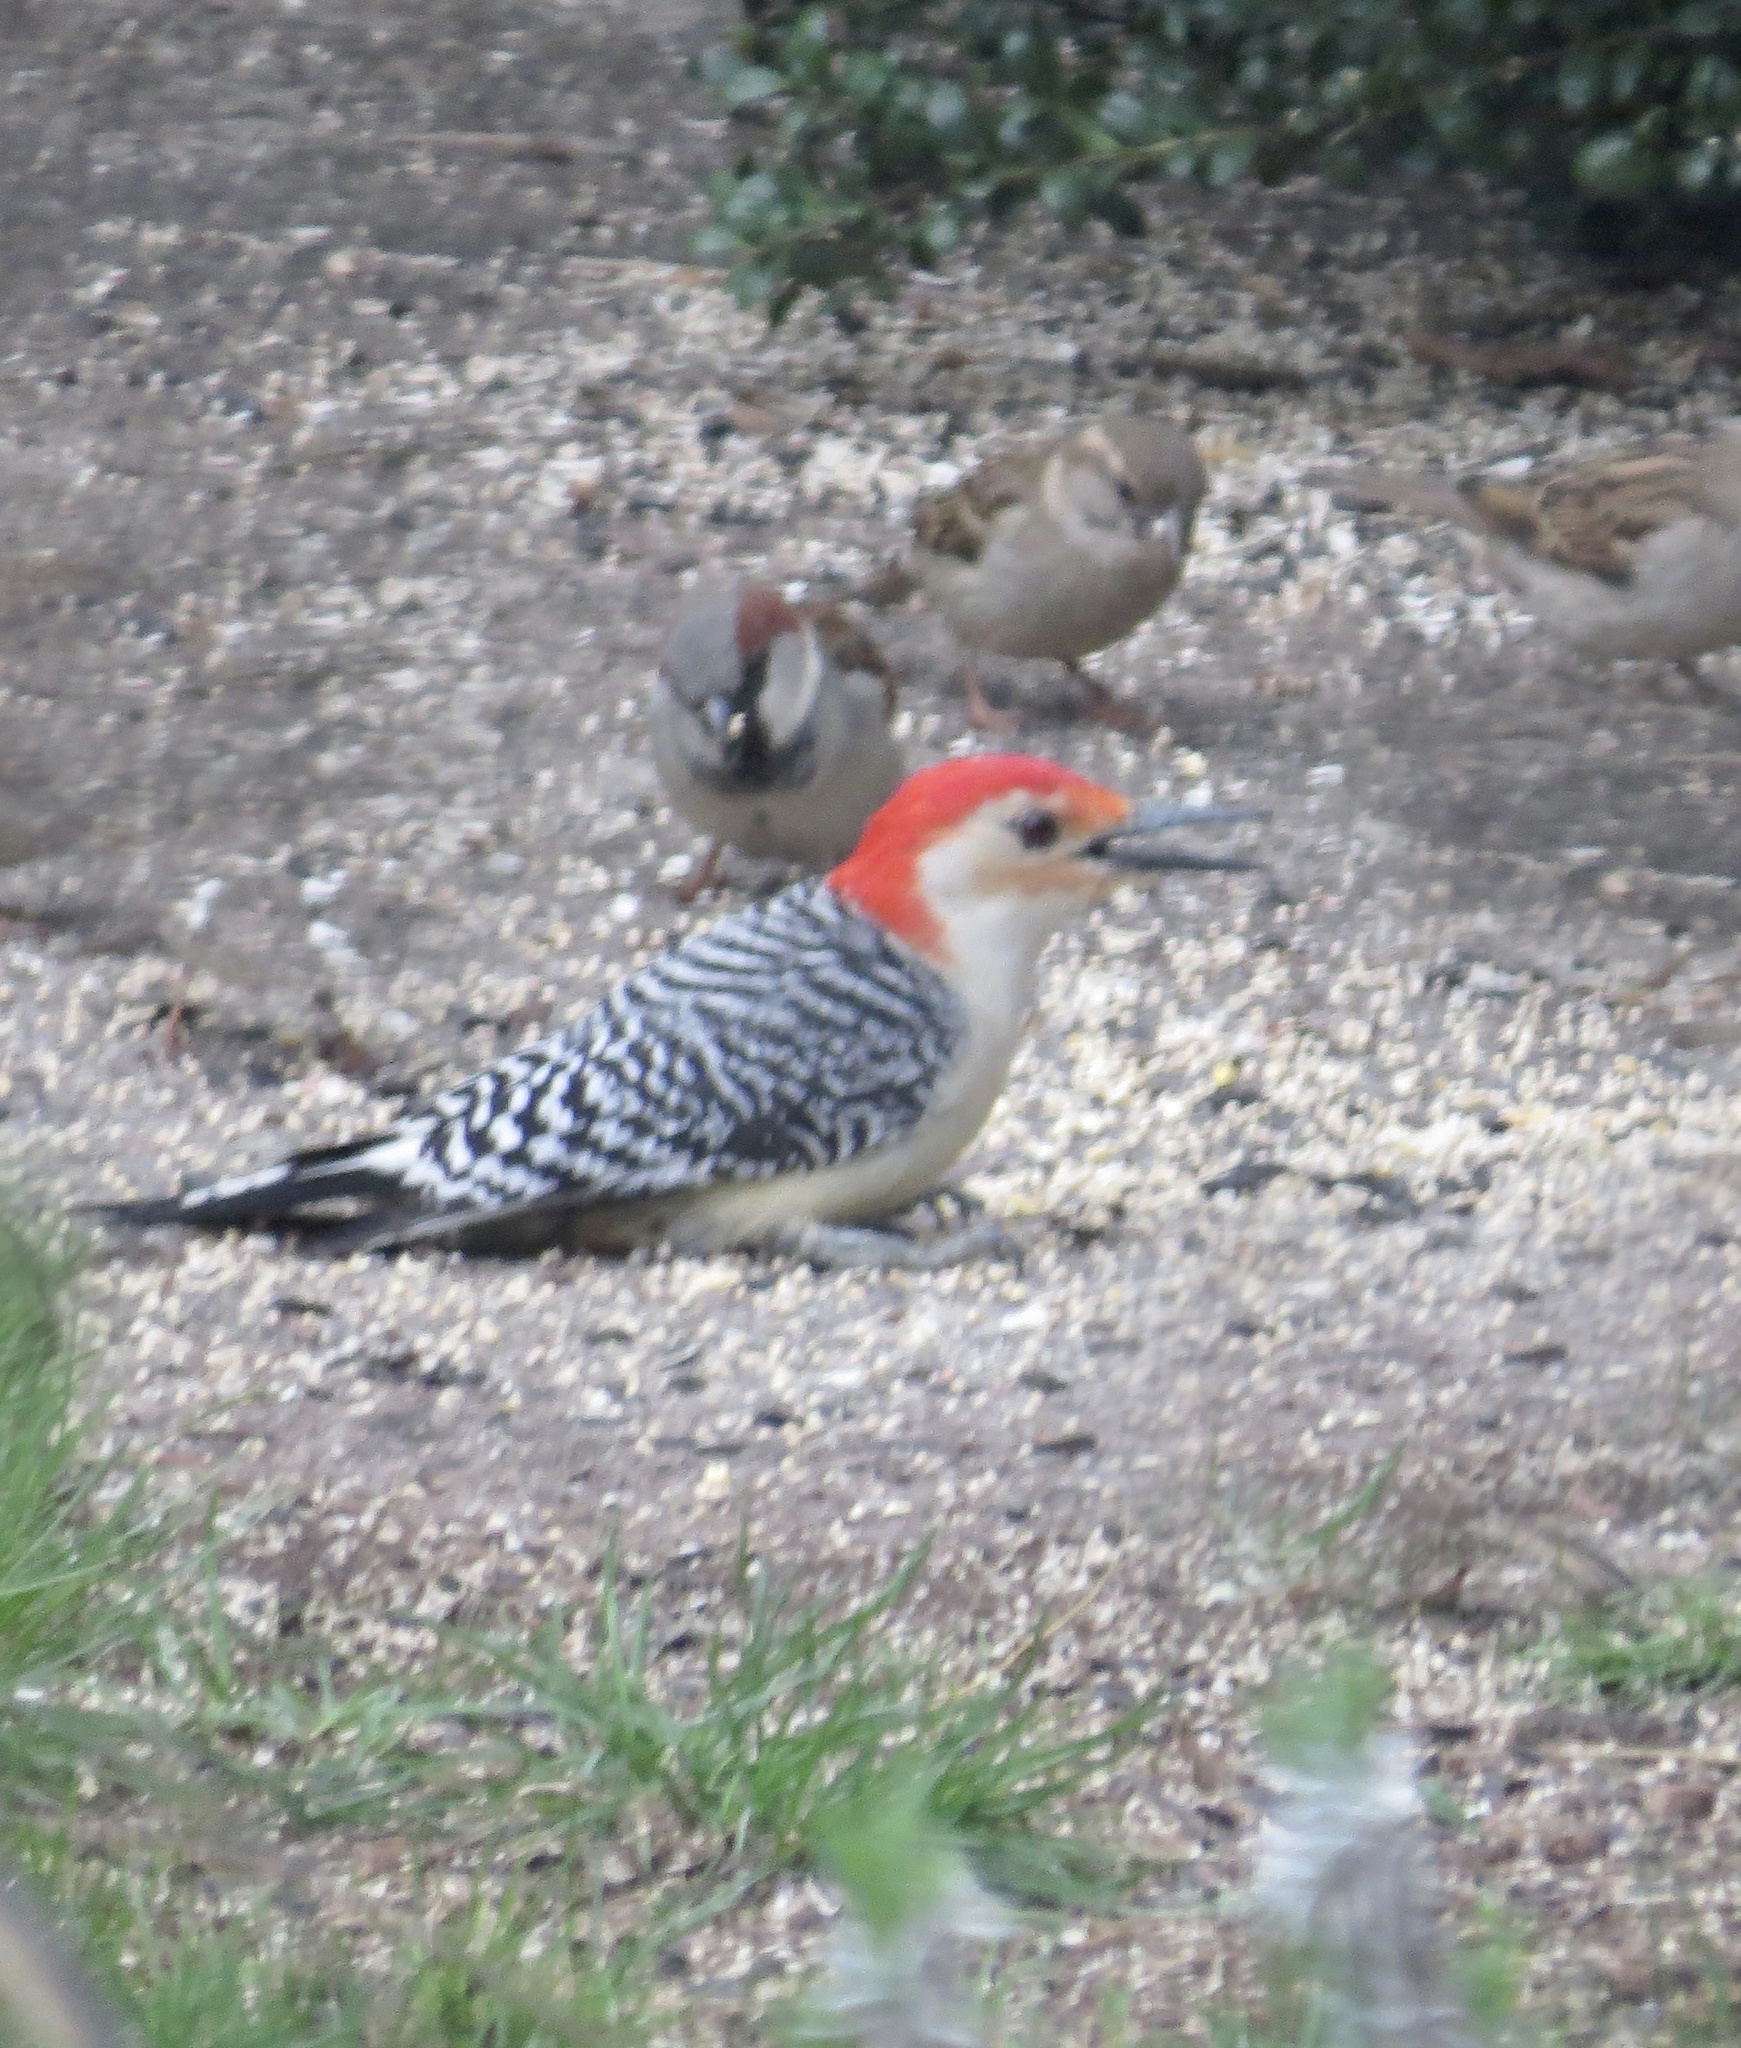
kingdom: Animalia
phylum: Chordata
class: Aves
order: Piciformes
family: Picidae
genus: Melanerpes
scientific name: Melanerpes carolinus
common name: Red-bellied woodpecker
